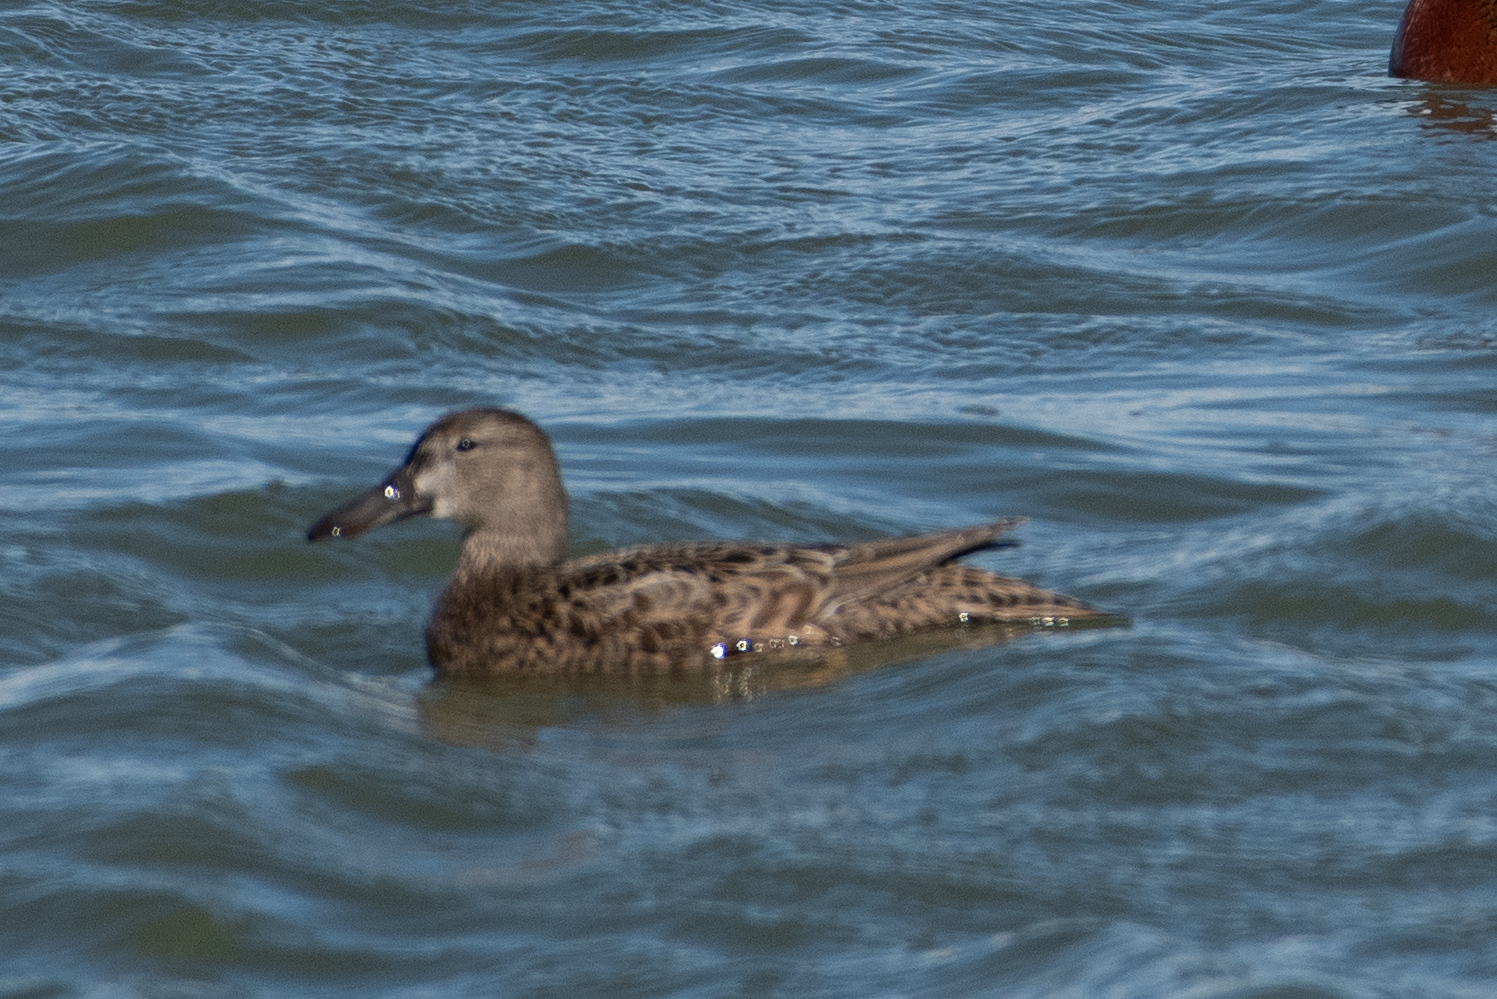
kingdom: Animalia
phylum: Chordata
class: Aves
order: Anseriformes
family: Anatidae
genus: Spatula
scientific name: Spatula cyanoptera
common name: Cinnamon teal
